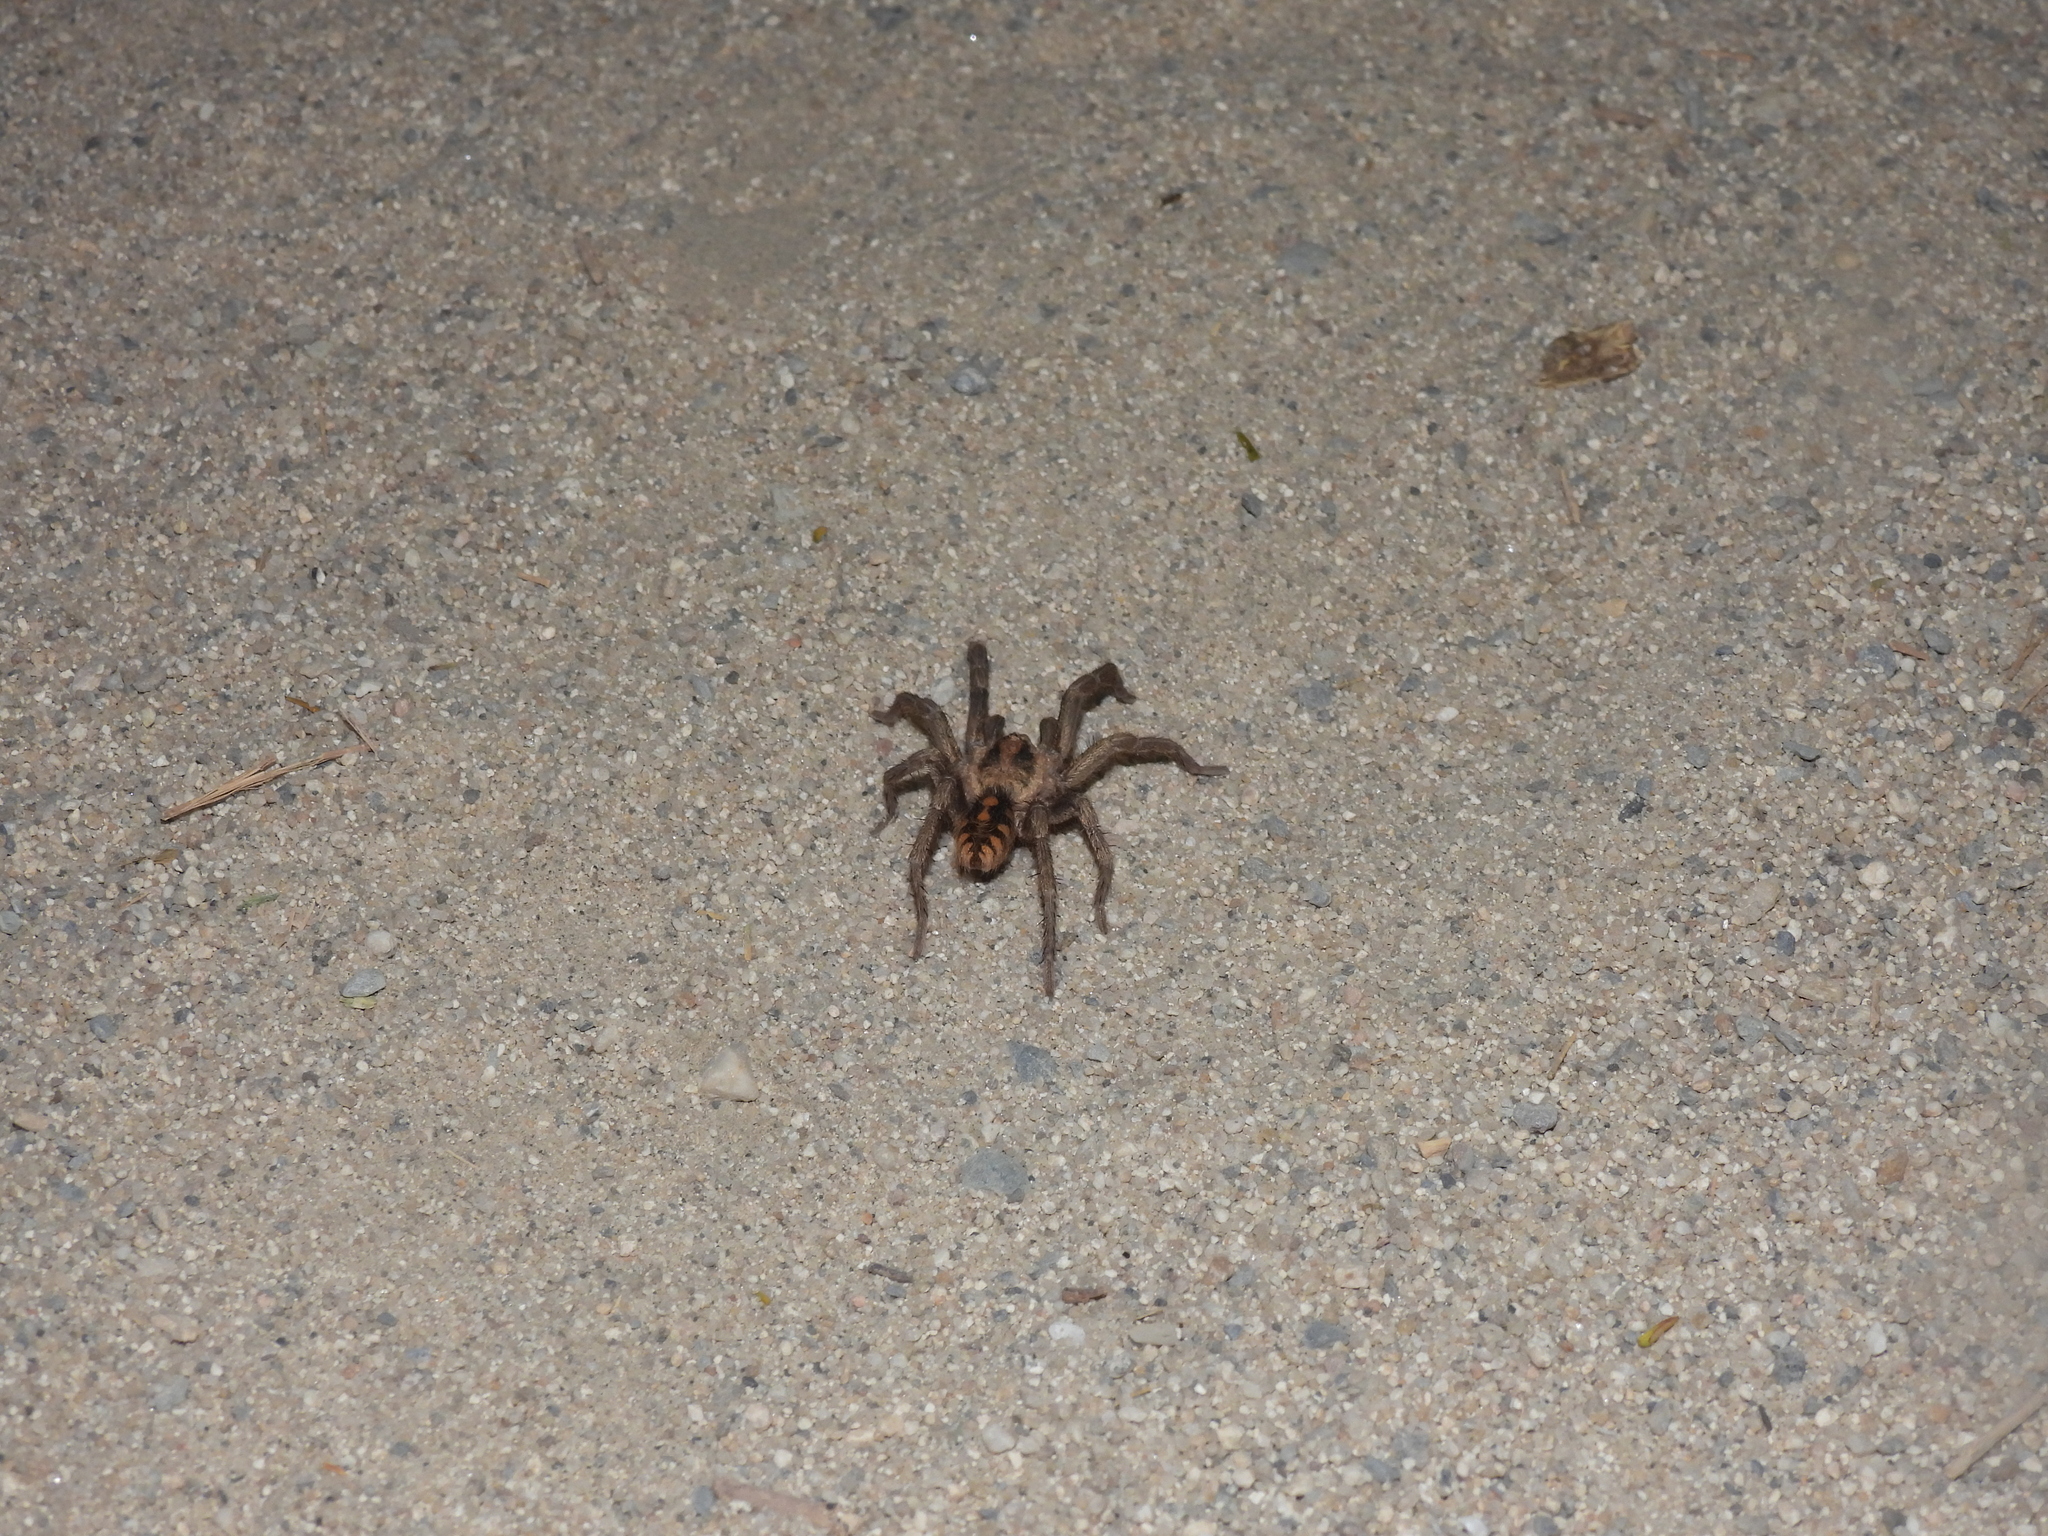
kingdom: Animalia
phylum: Arthropoda
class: Arachnida
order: Araneae
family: Theraphosidae
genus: Hapalopus
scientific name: Hapalopus formosus
